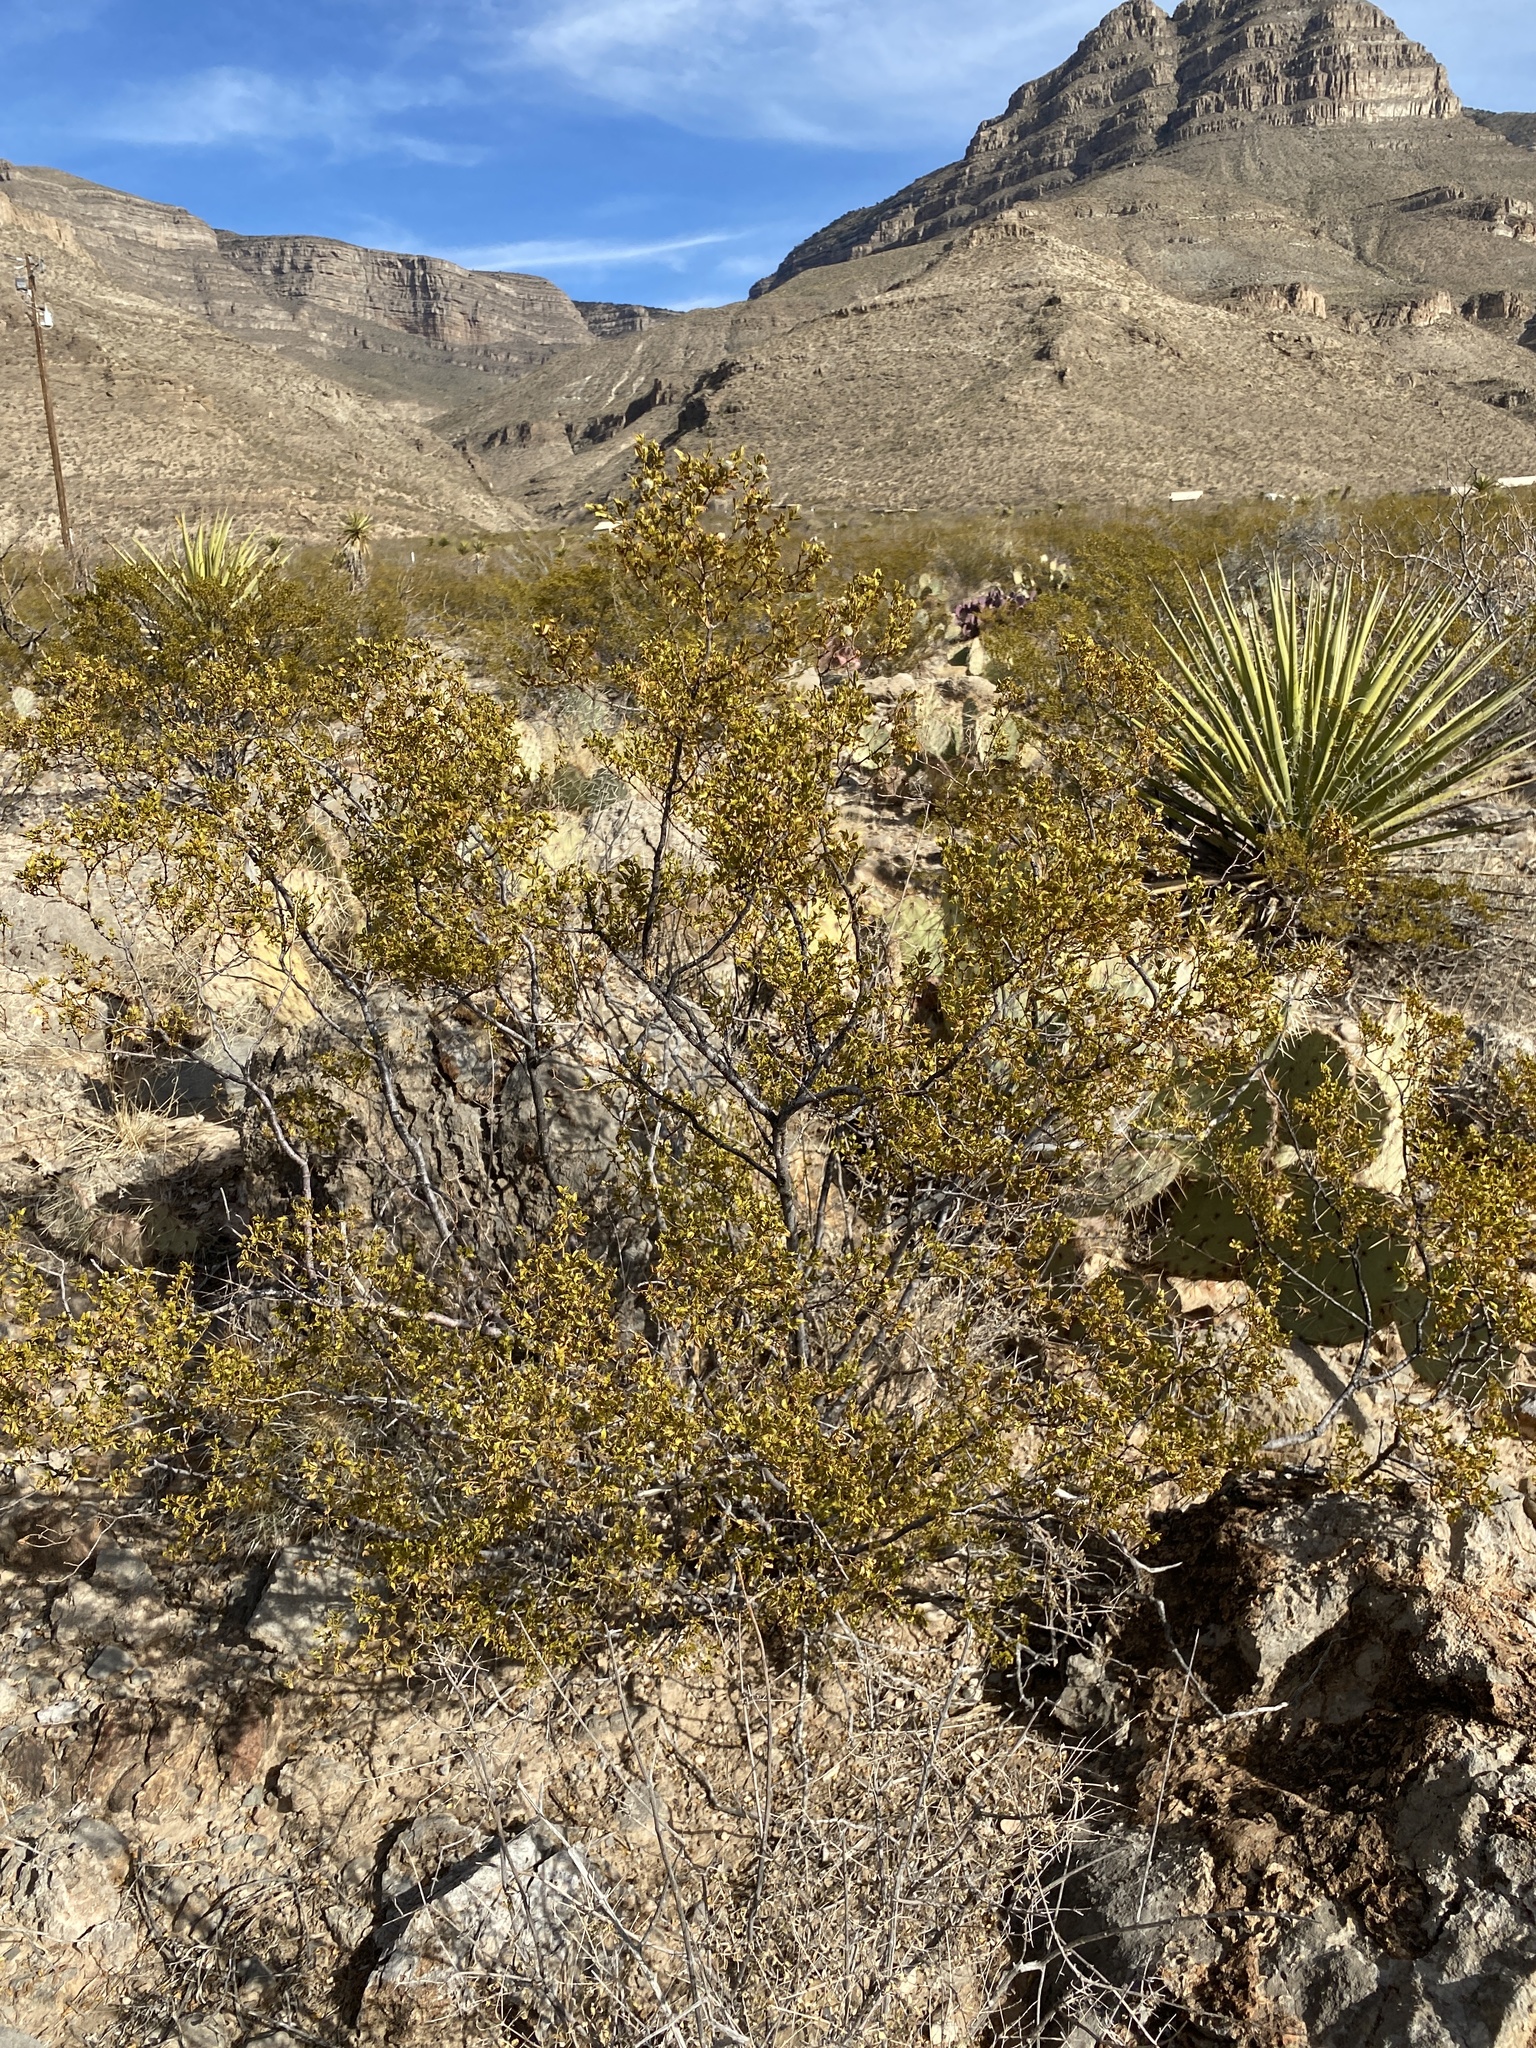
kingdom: Plantae
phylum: Tracheophyta
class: Magnoliopsida
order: Zygophyllales
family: Zygophyllaceae
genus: Larrea
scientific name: Larrea tridentata
